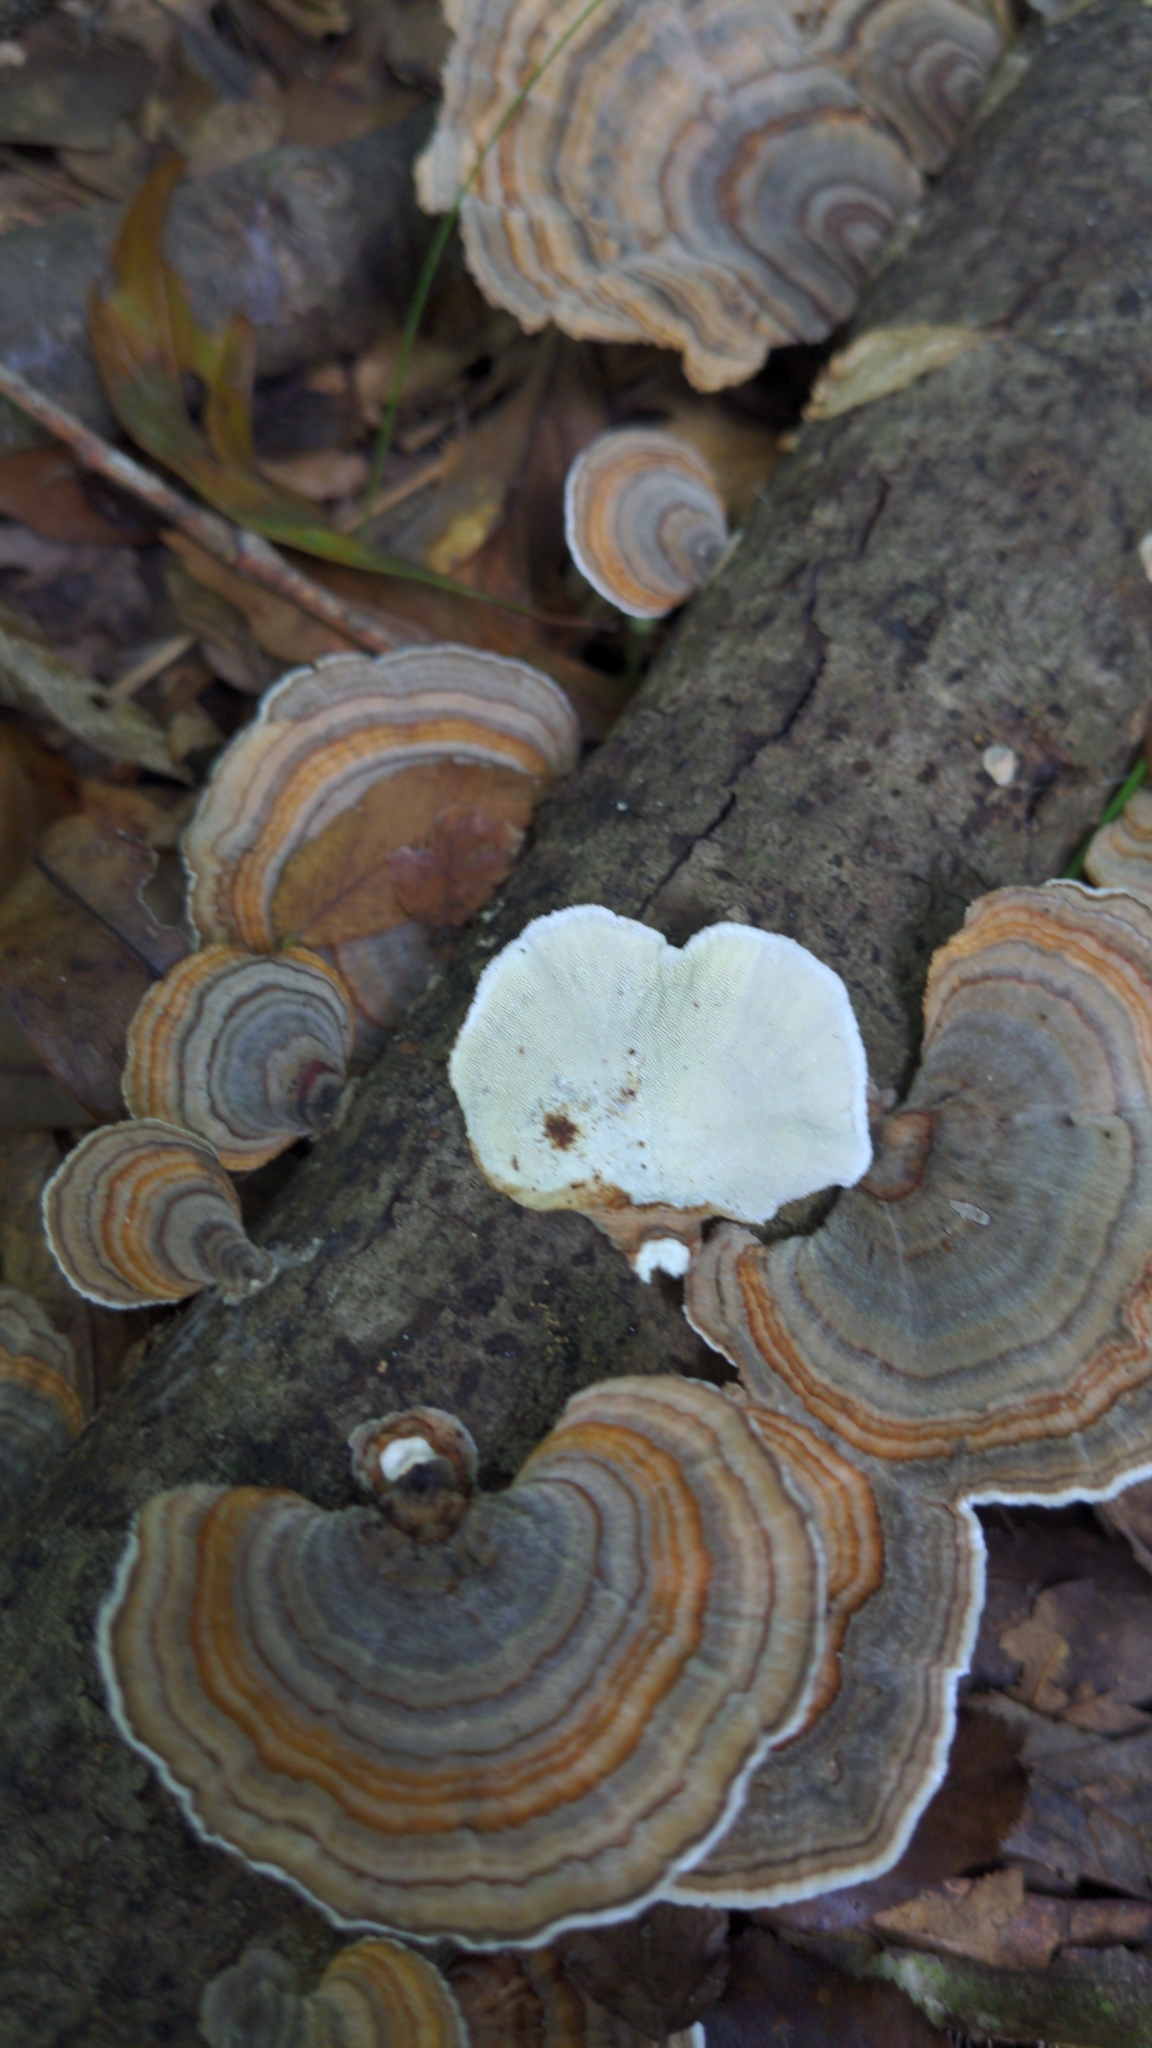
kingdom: Fungi
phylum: Basidiomycota
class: Agaricomycetes
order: Polyporales
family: Polyporaceae
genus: Trametes
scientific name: Trametes versicolor
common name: Turkeytail
